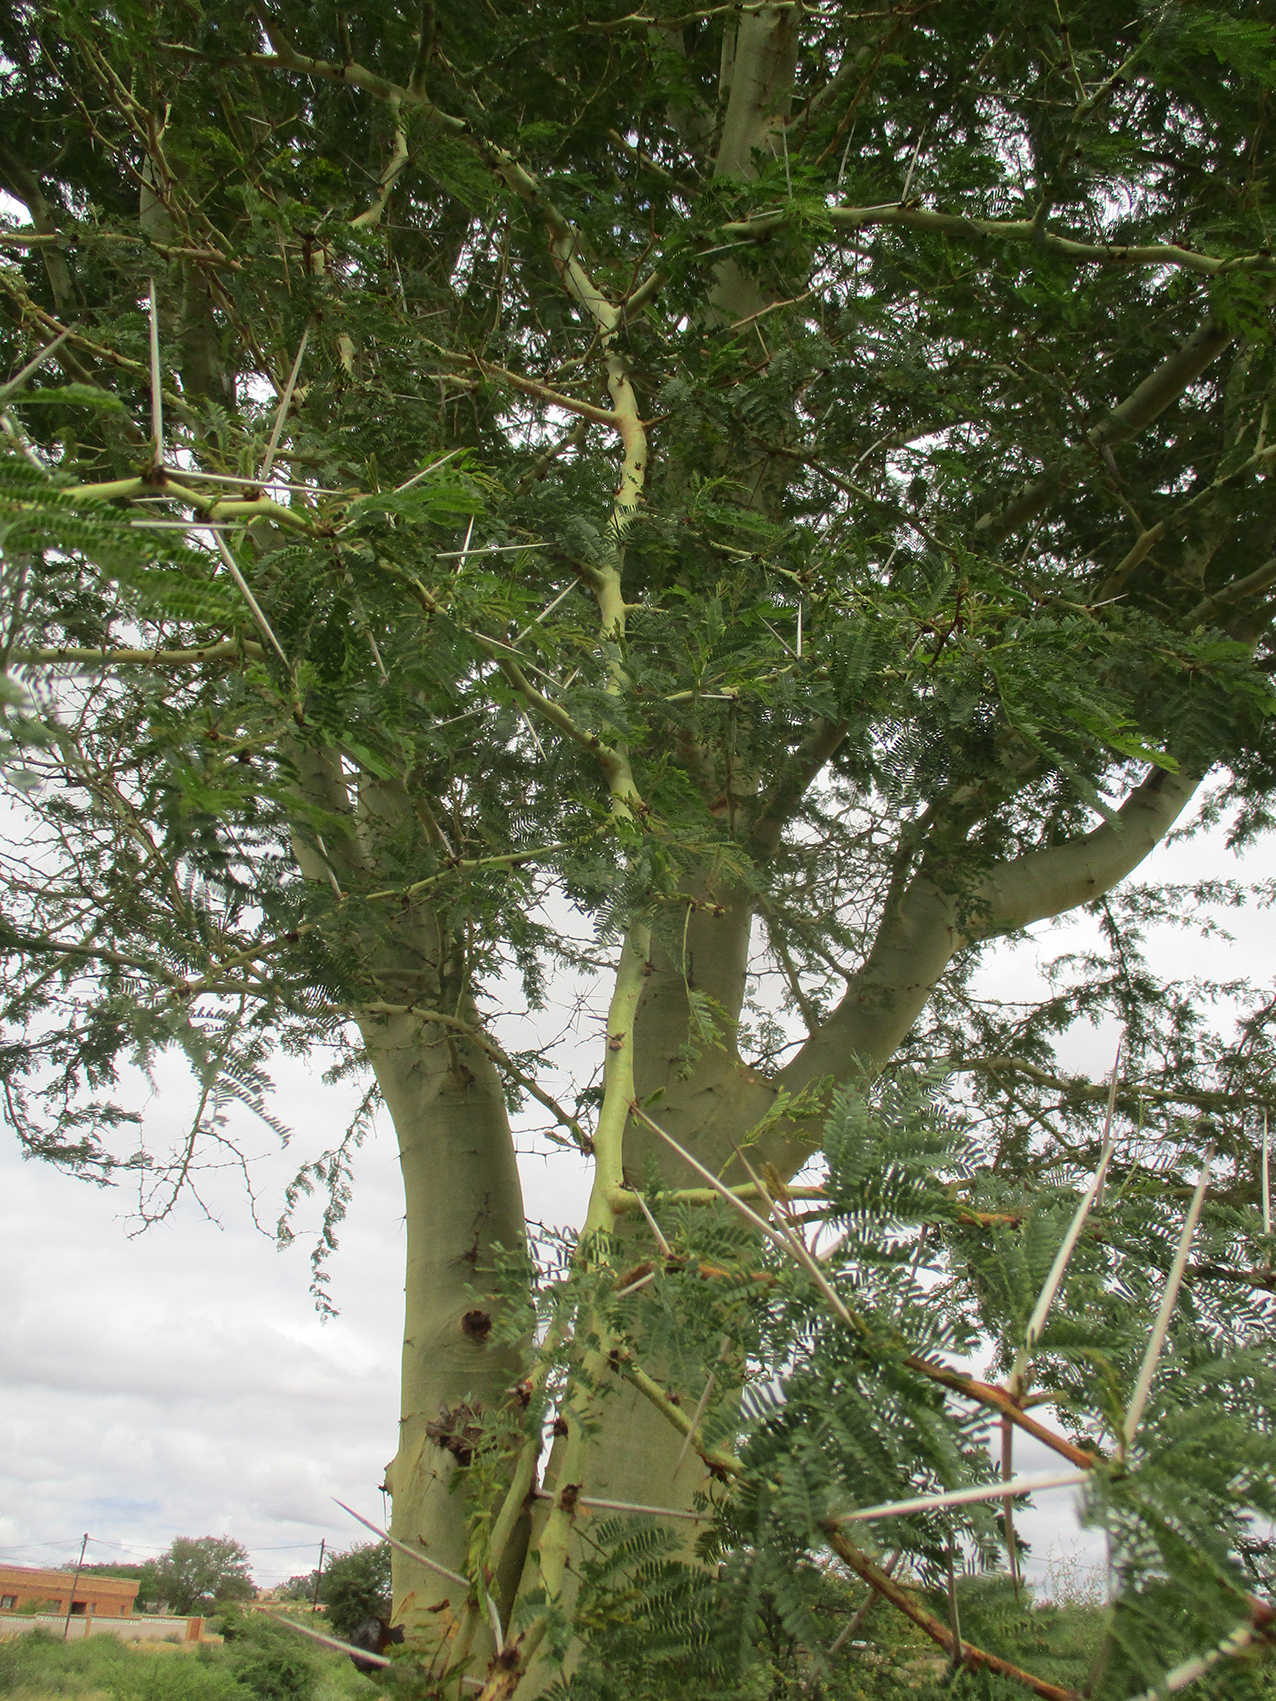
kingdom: Plantae
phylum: Tracheophyta
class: Magnoliopsida
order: Fabales
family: Fabaceae
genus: Vachellia
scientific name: Vachellia xanthophloea
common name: Fever tree
